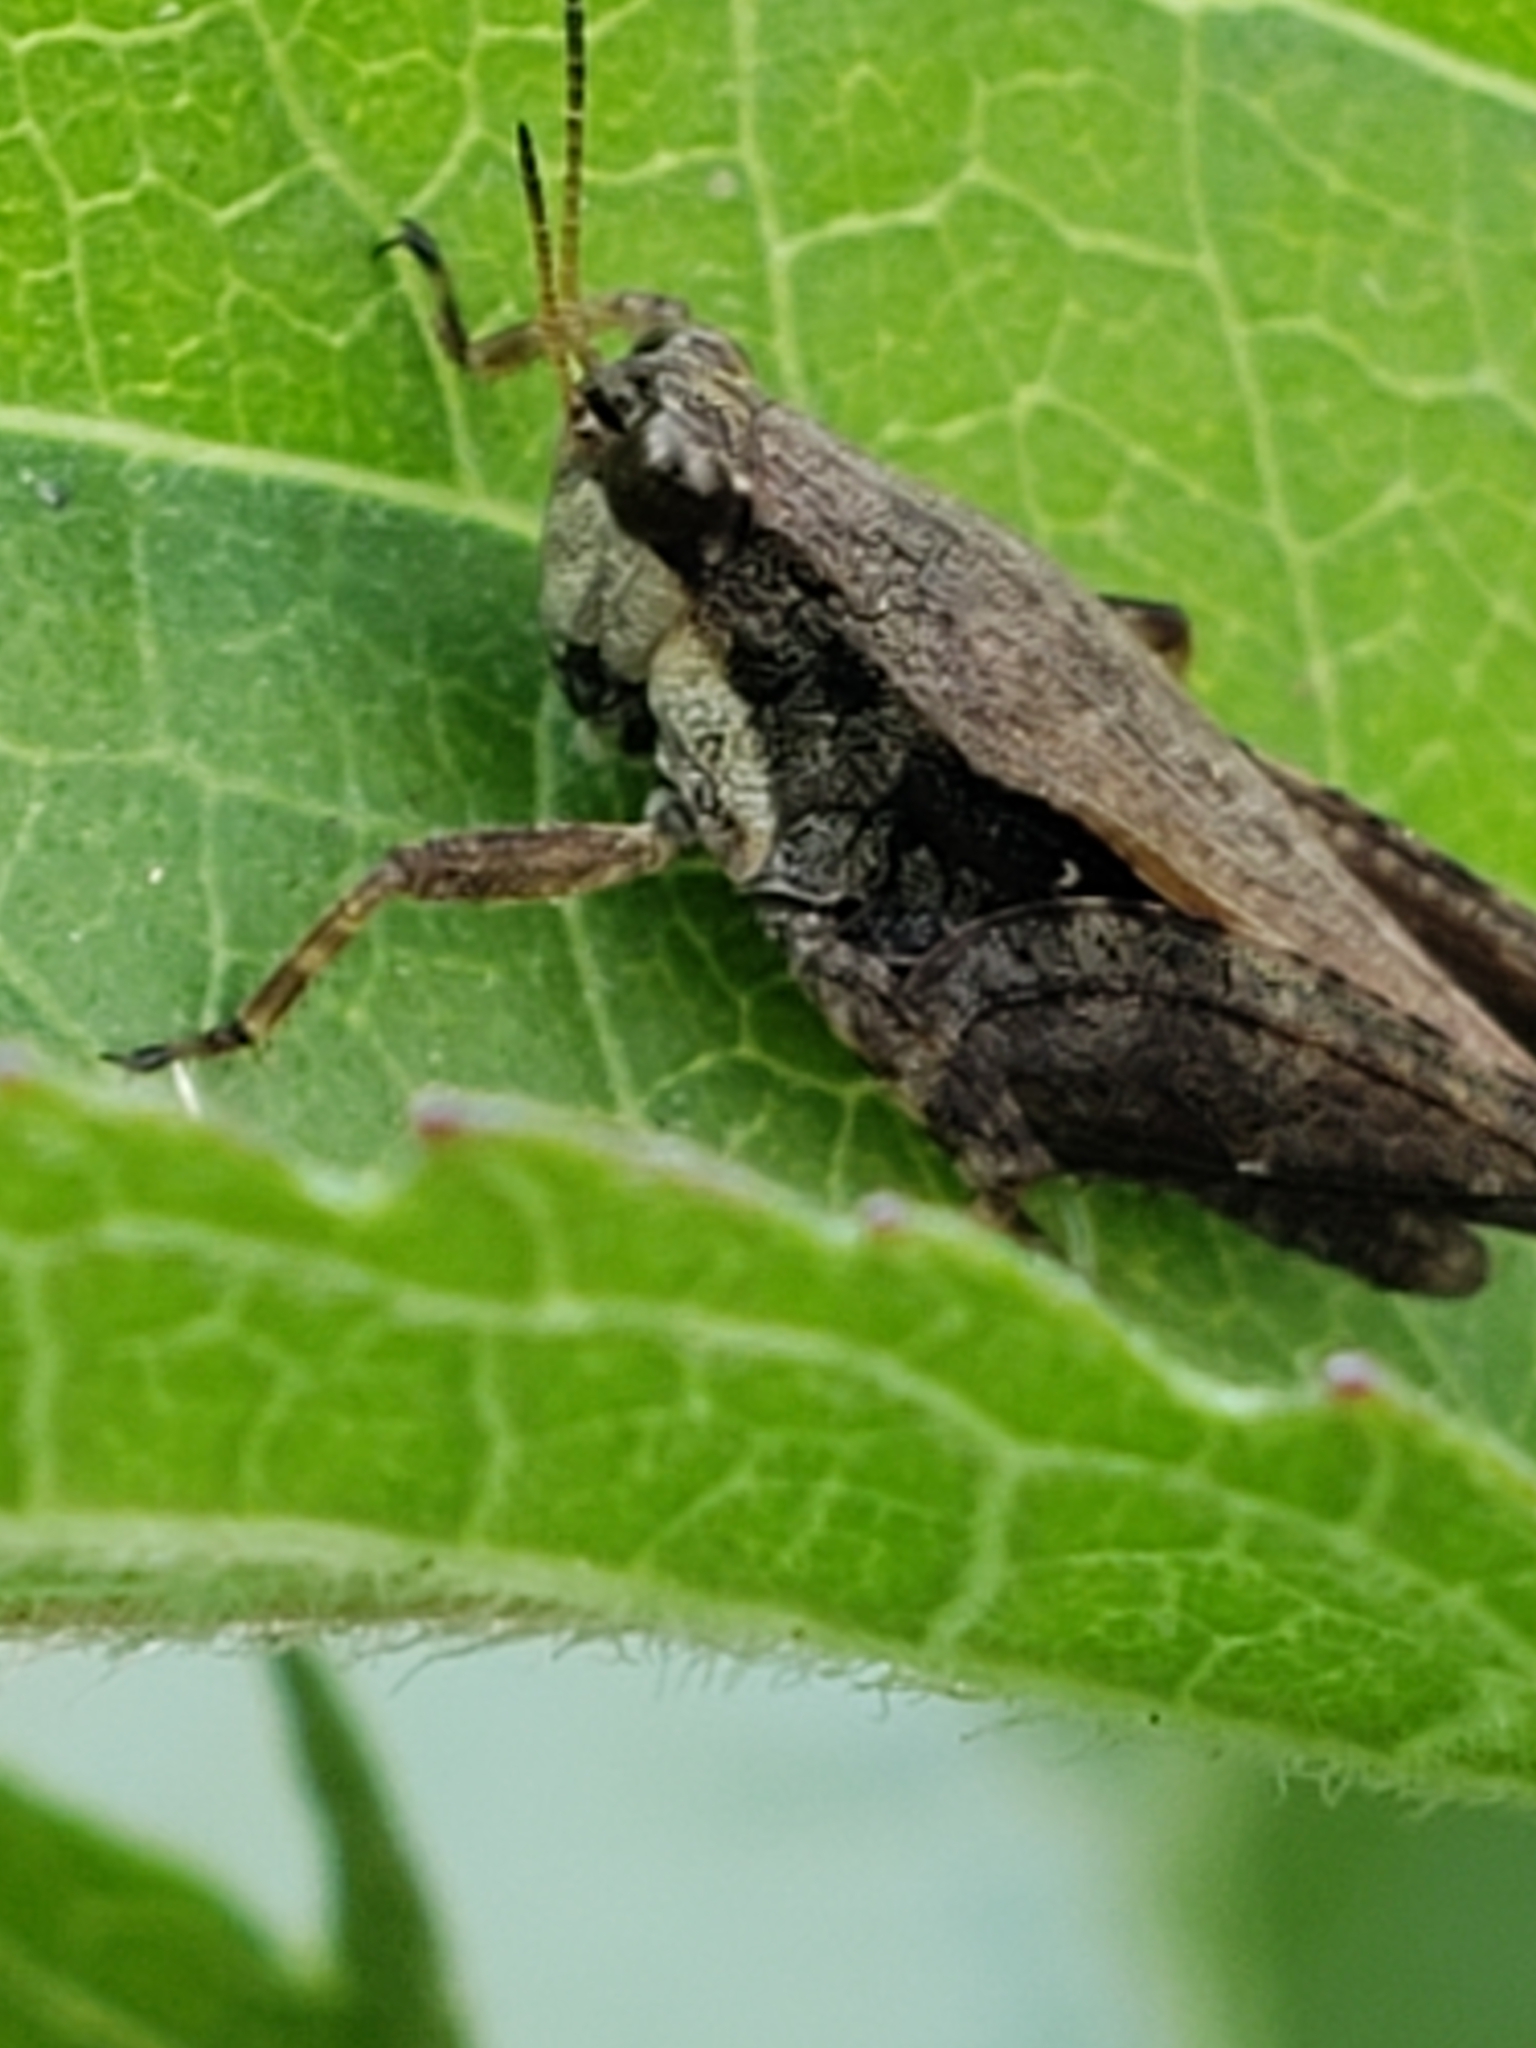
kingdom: Animalia
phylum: Arthropoda
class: Insecta
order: Orthoptera
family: Tetrigidae
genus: Tettigidea
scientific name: Tettigidea laterale
